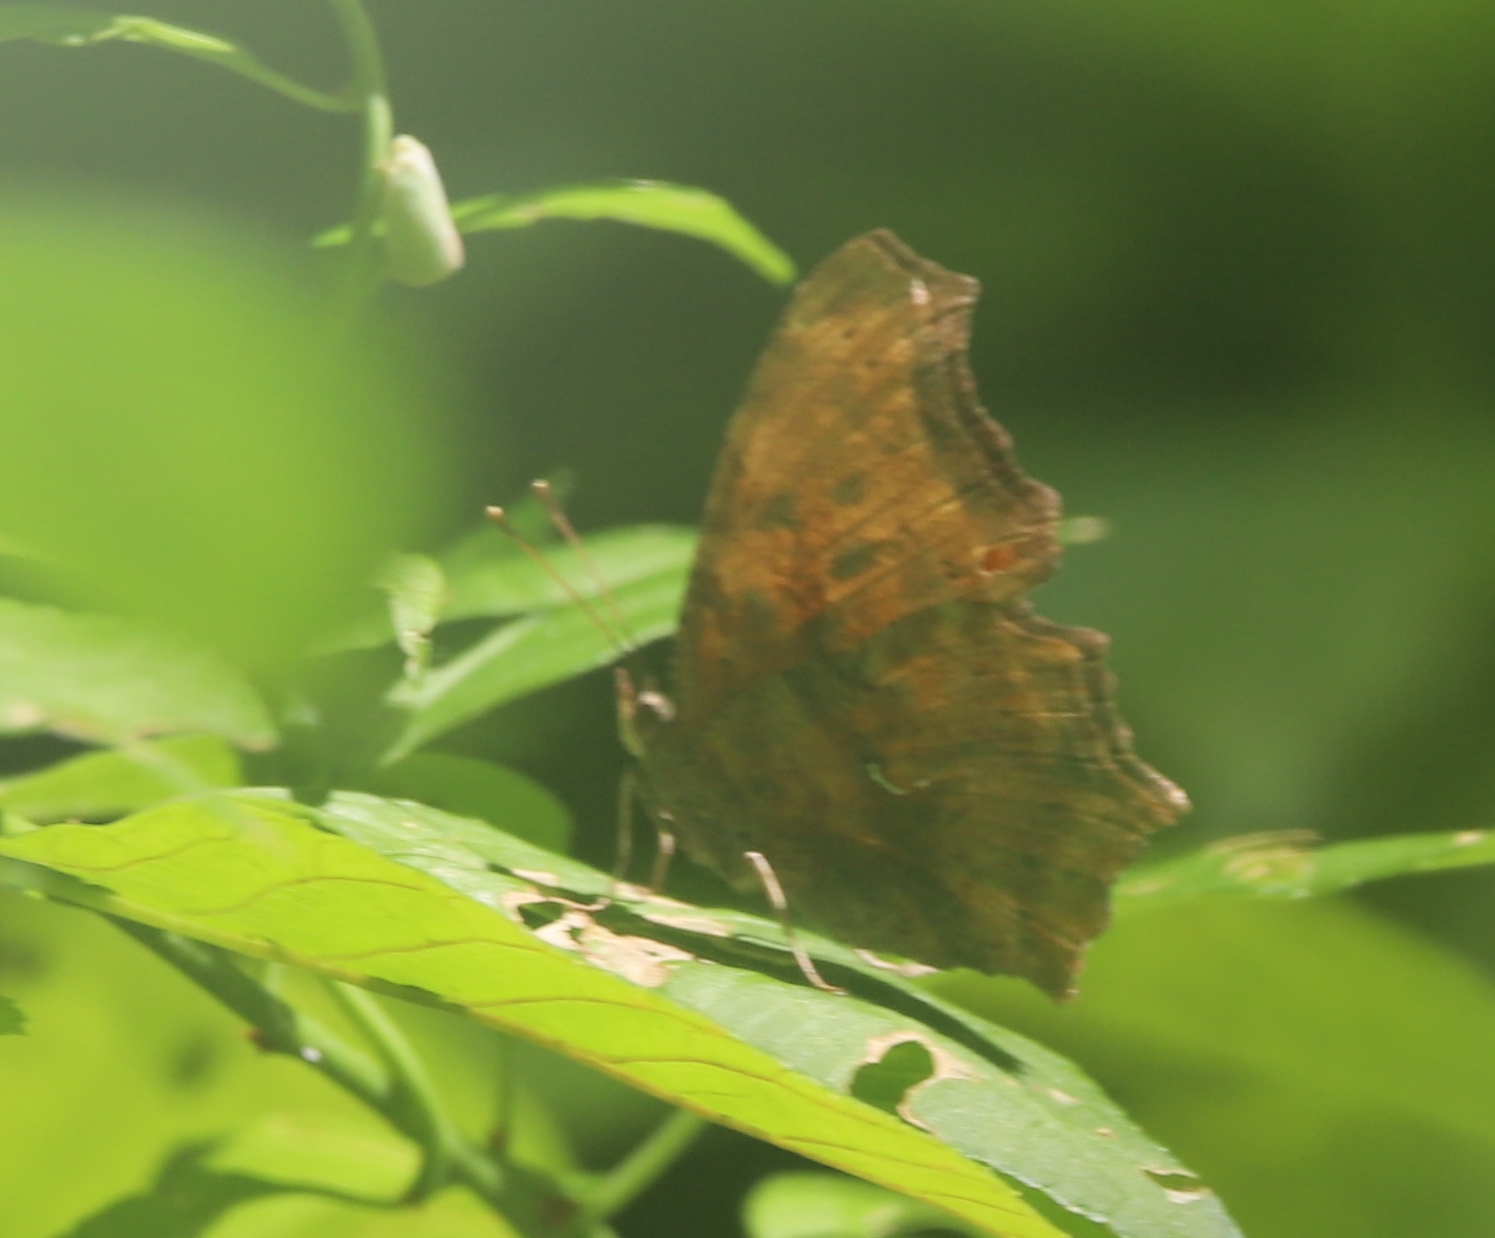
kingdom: Animalia
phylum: Arthropoda
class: Insecta
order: Lepidoptera
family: Nymphalidae
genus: Polygonia
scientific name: Polygonia comma
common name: Eastern comma
